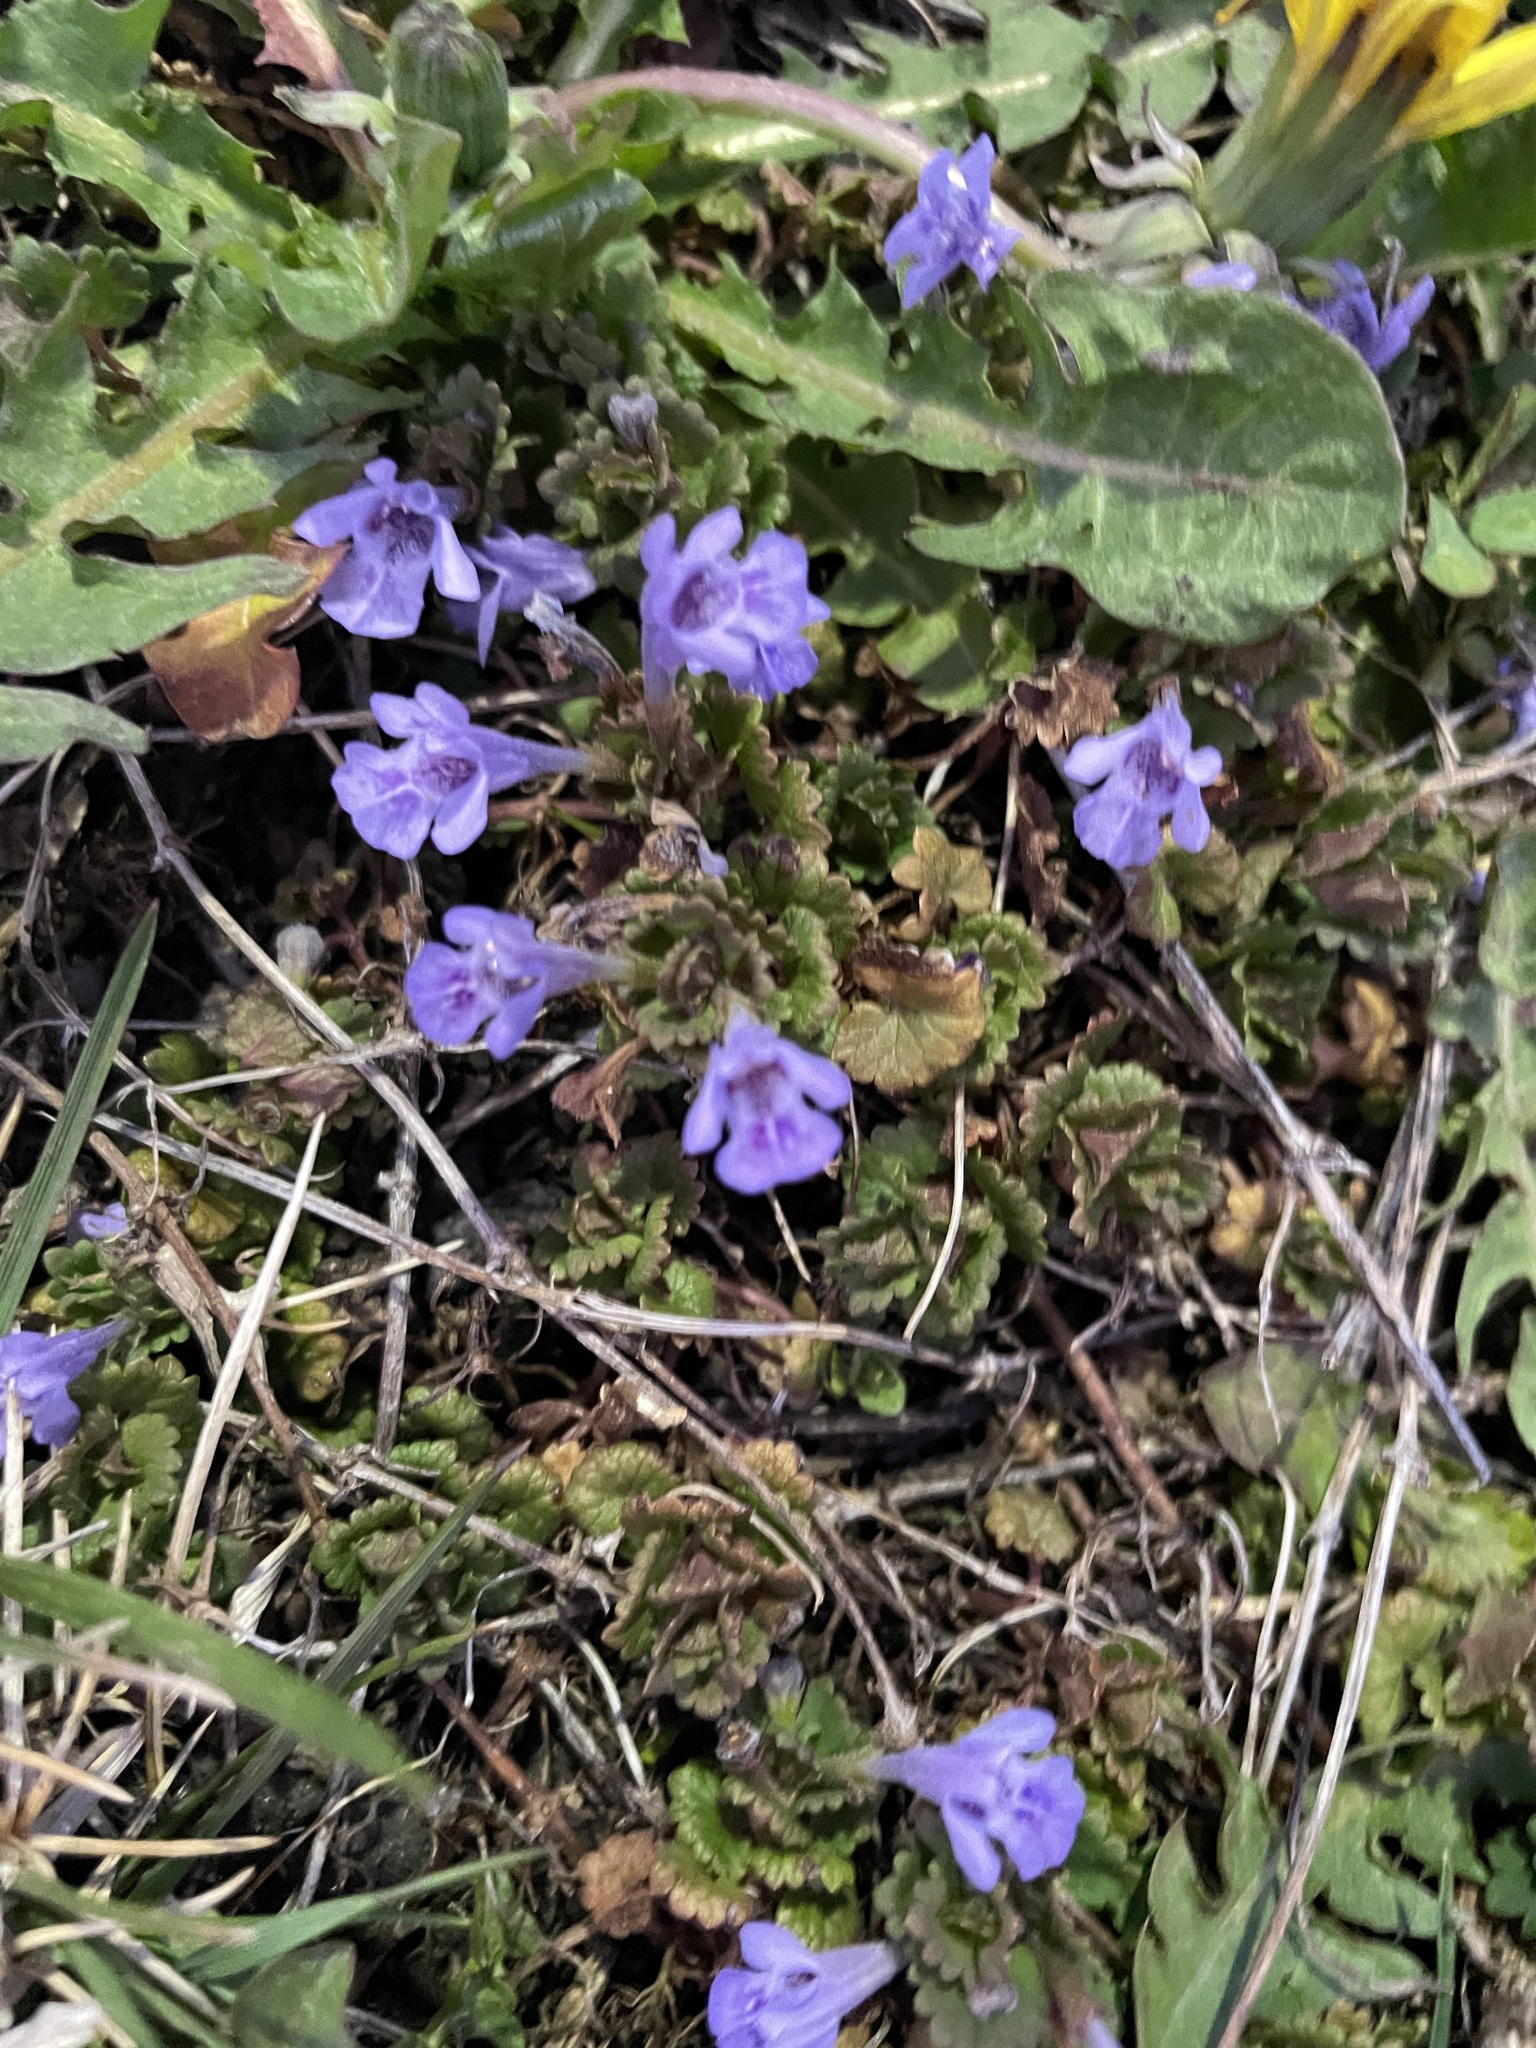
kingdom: Plantae
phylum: Tracheophyta
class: Magnoliopsida
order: Lamiales
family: Lamiaceae
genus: Glechoma
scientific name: Glechoma hederacea
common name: Ground ivy
